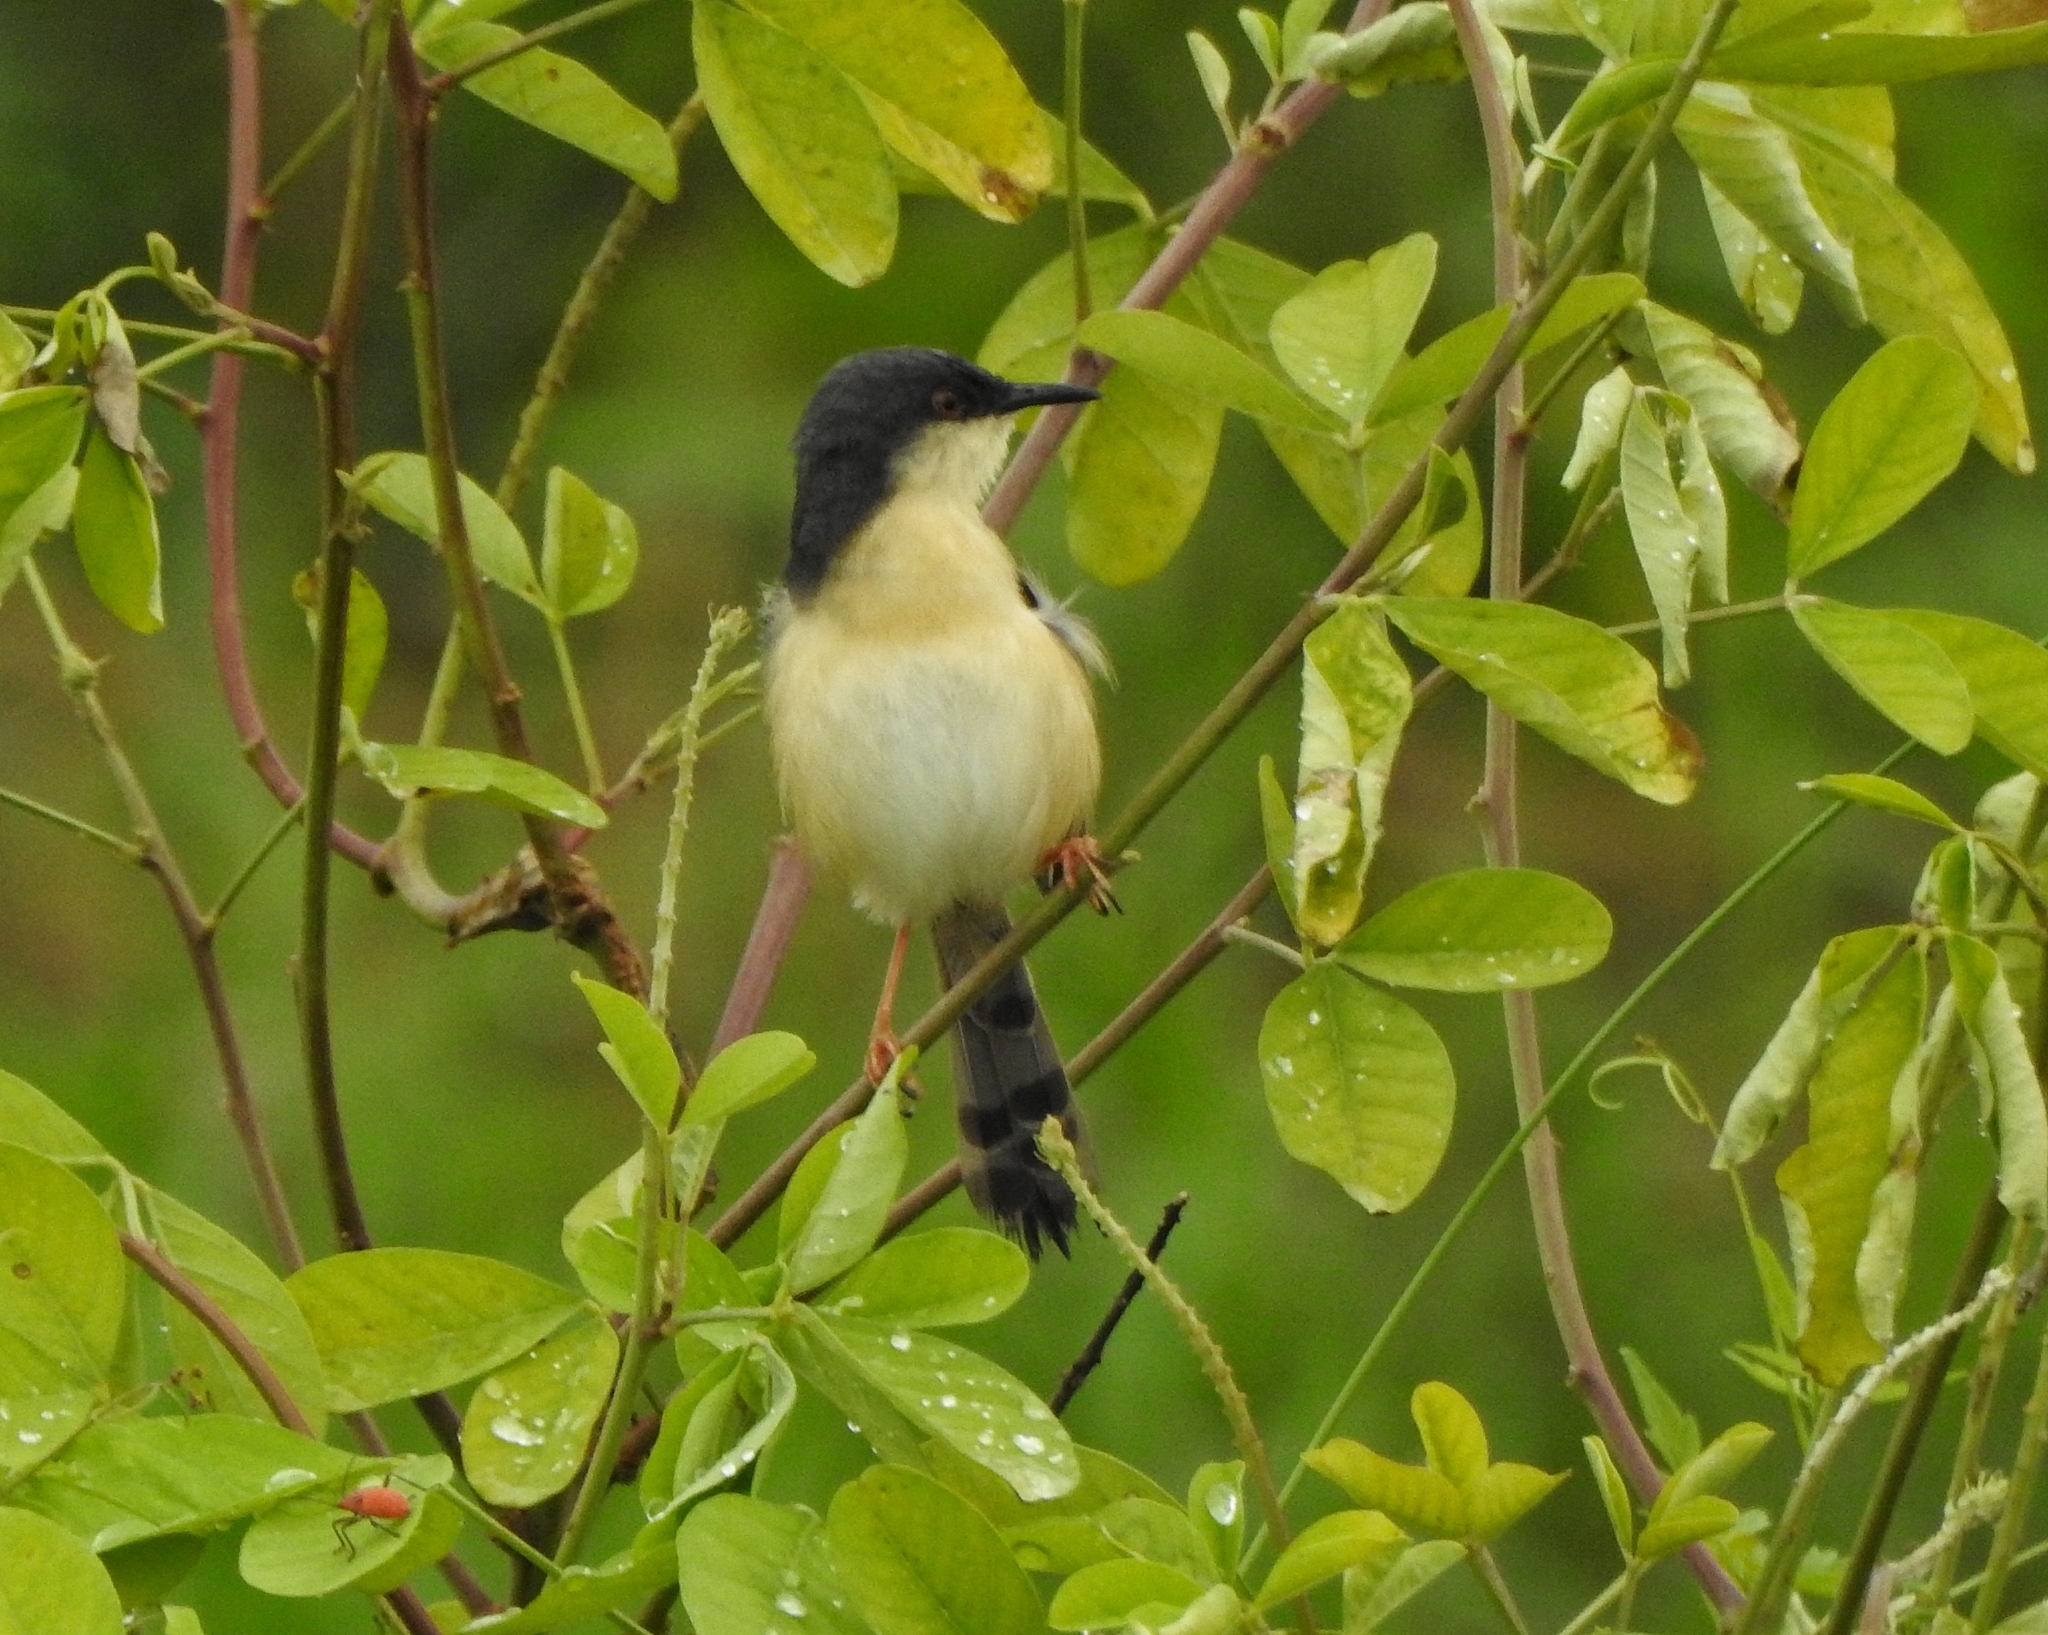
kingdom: Animalia
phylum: Chordata
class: Aves
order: Passeriformes
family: Cisticolidae
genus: Prinia
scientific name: Prinia socialis
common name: Ashy prinia
